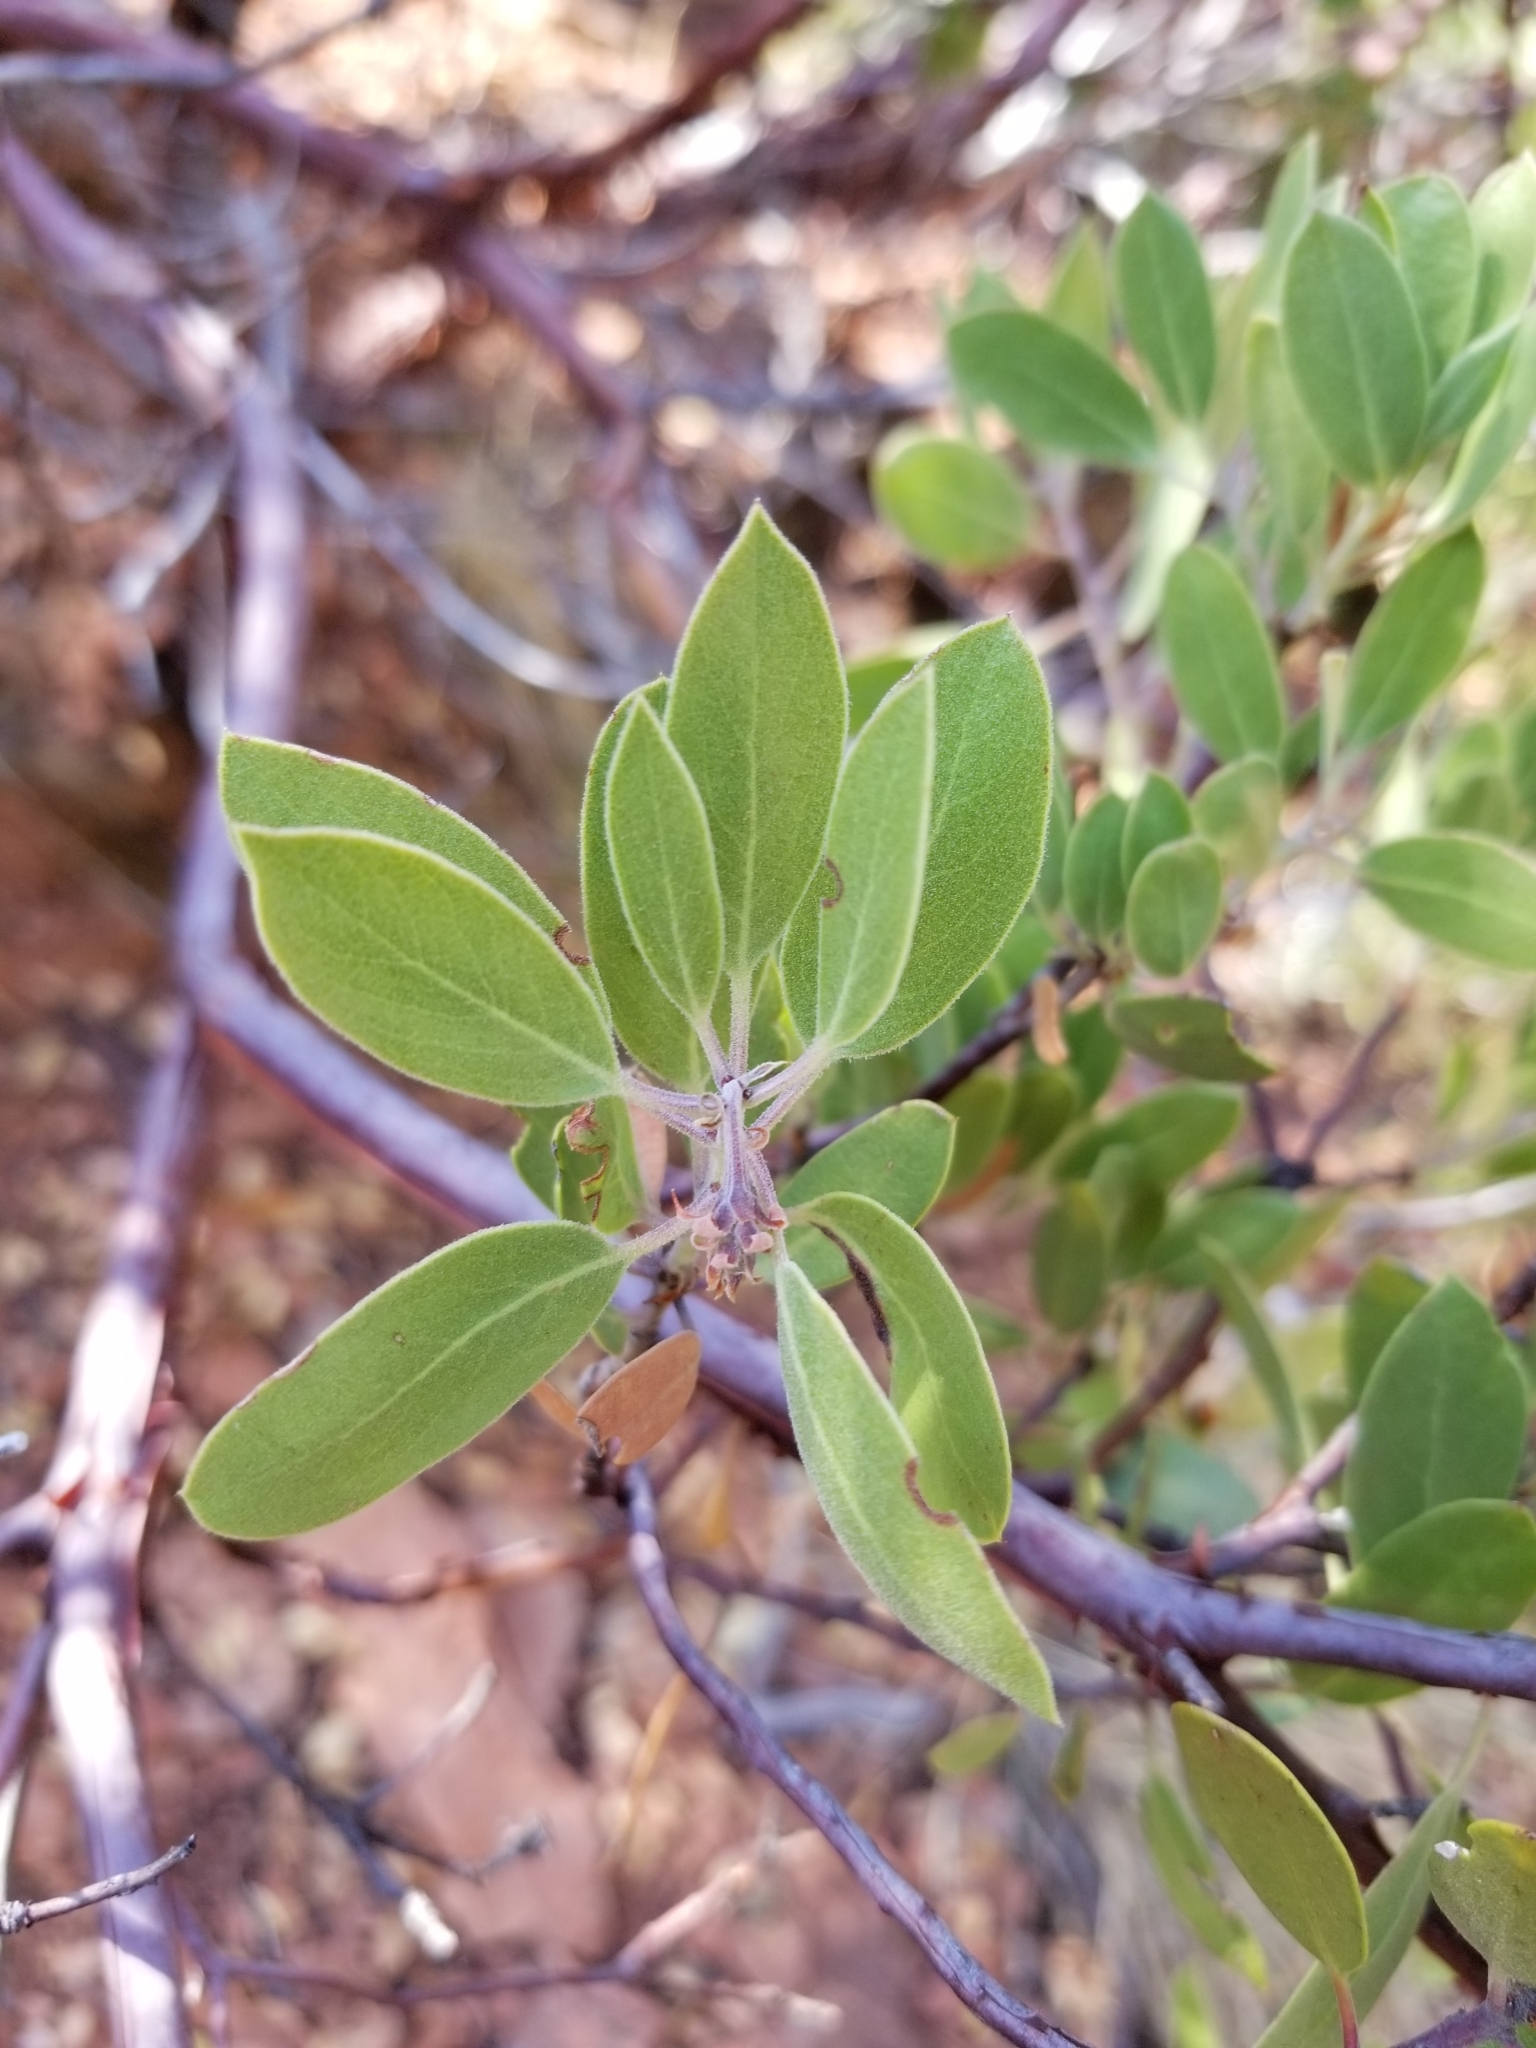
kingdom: Plantae
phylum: Tracheophyta
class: Magnoliopsida
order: Ericales
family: Ericaceae
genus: Arctostaphylos
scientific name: Arctostaphylos pungens
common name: Mexican manzanita
